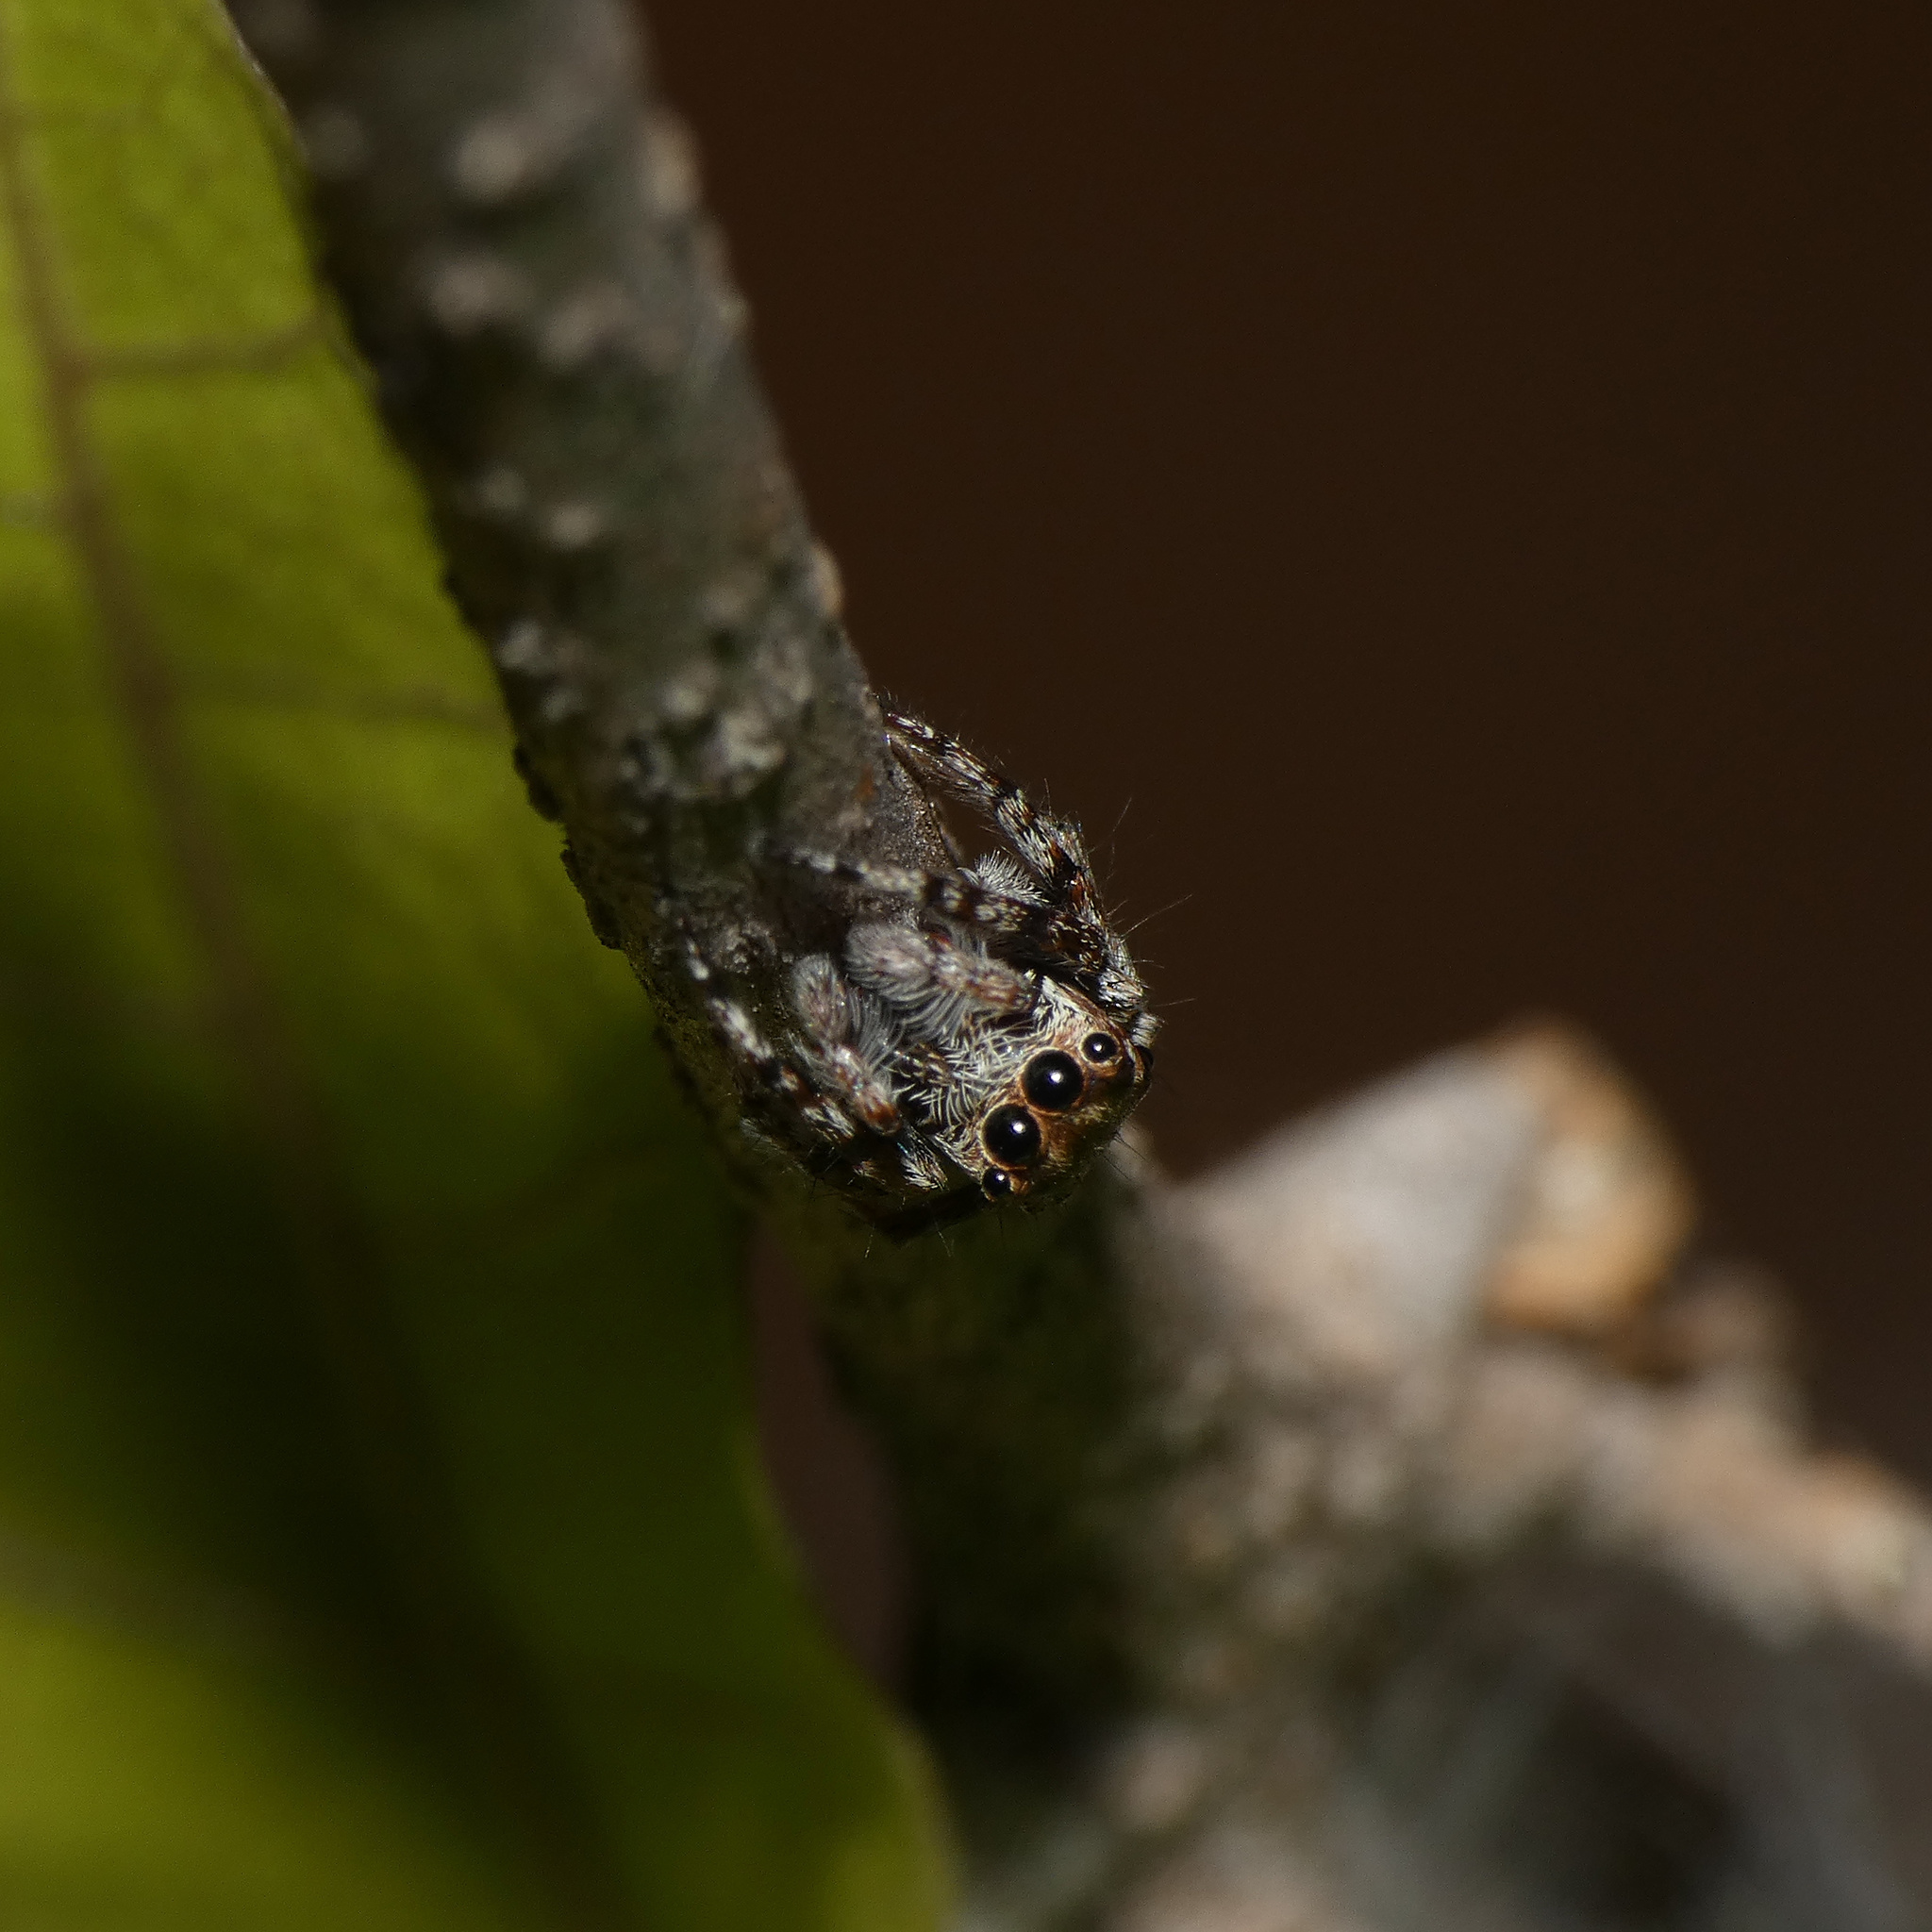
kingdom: Animalia
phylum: Arthropoda
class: Arachnida
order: Araneae
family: Salticidae
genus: Tusitala
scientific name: Tusitala hirsuta
